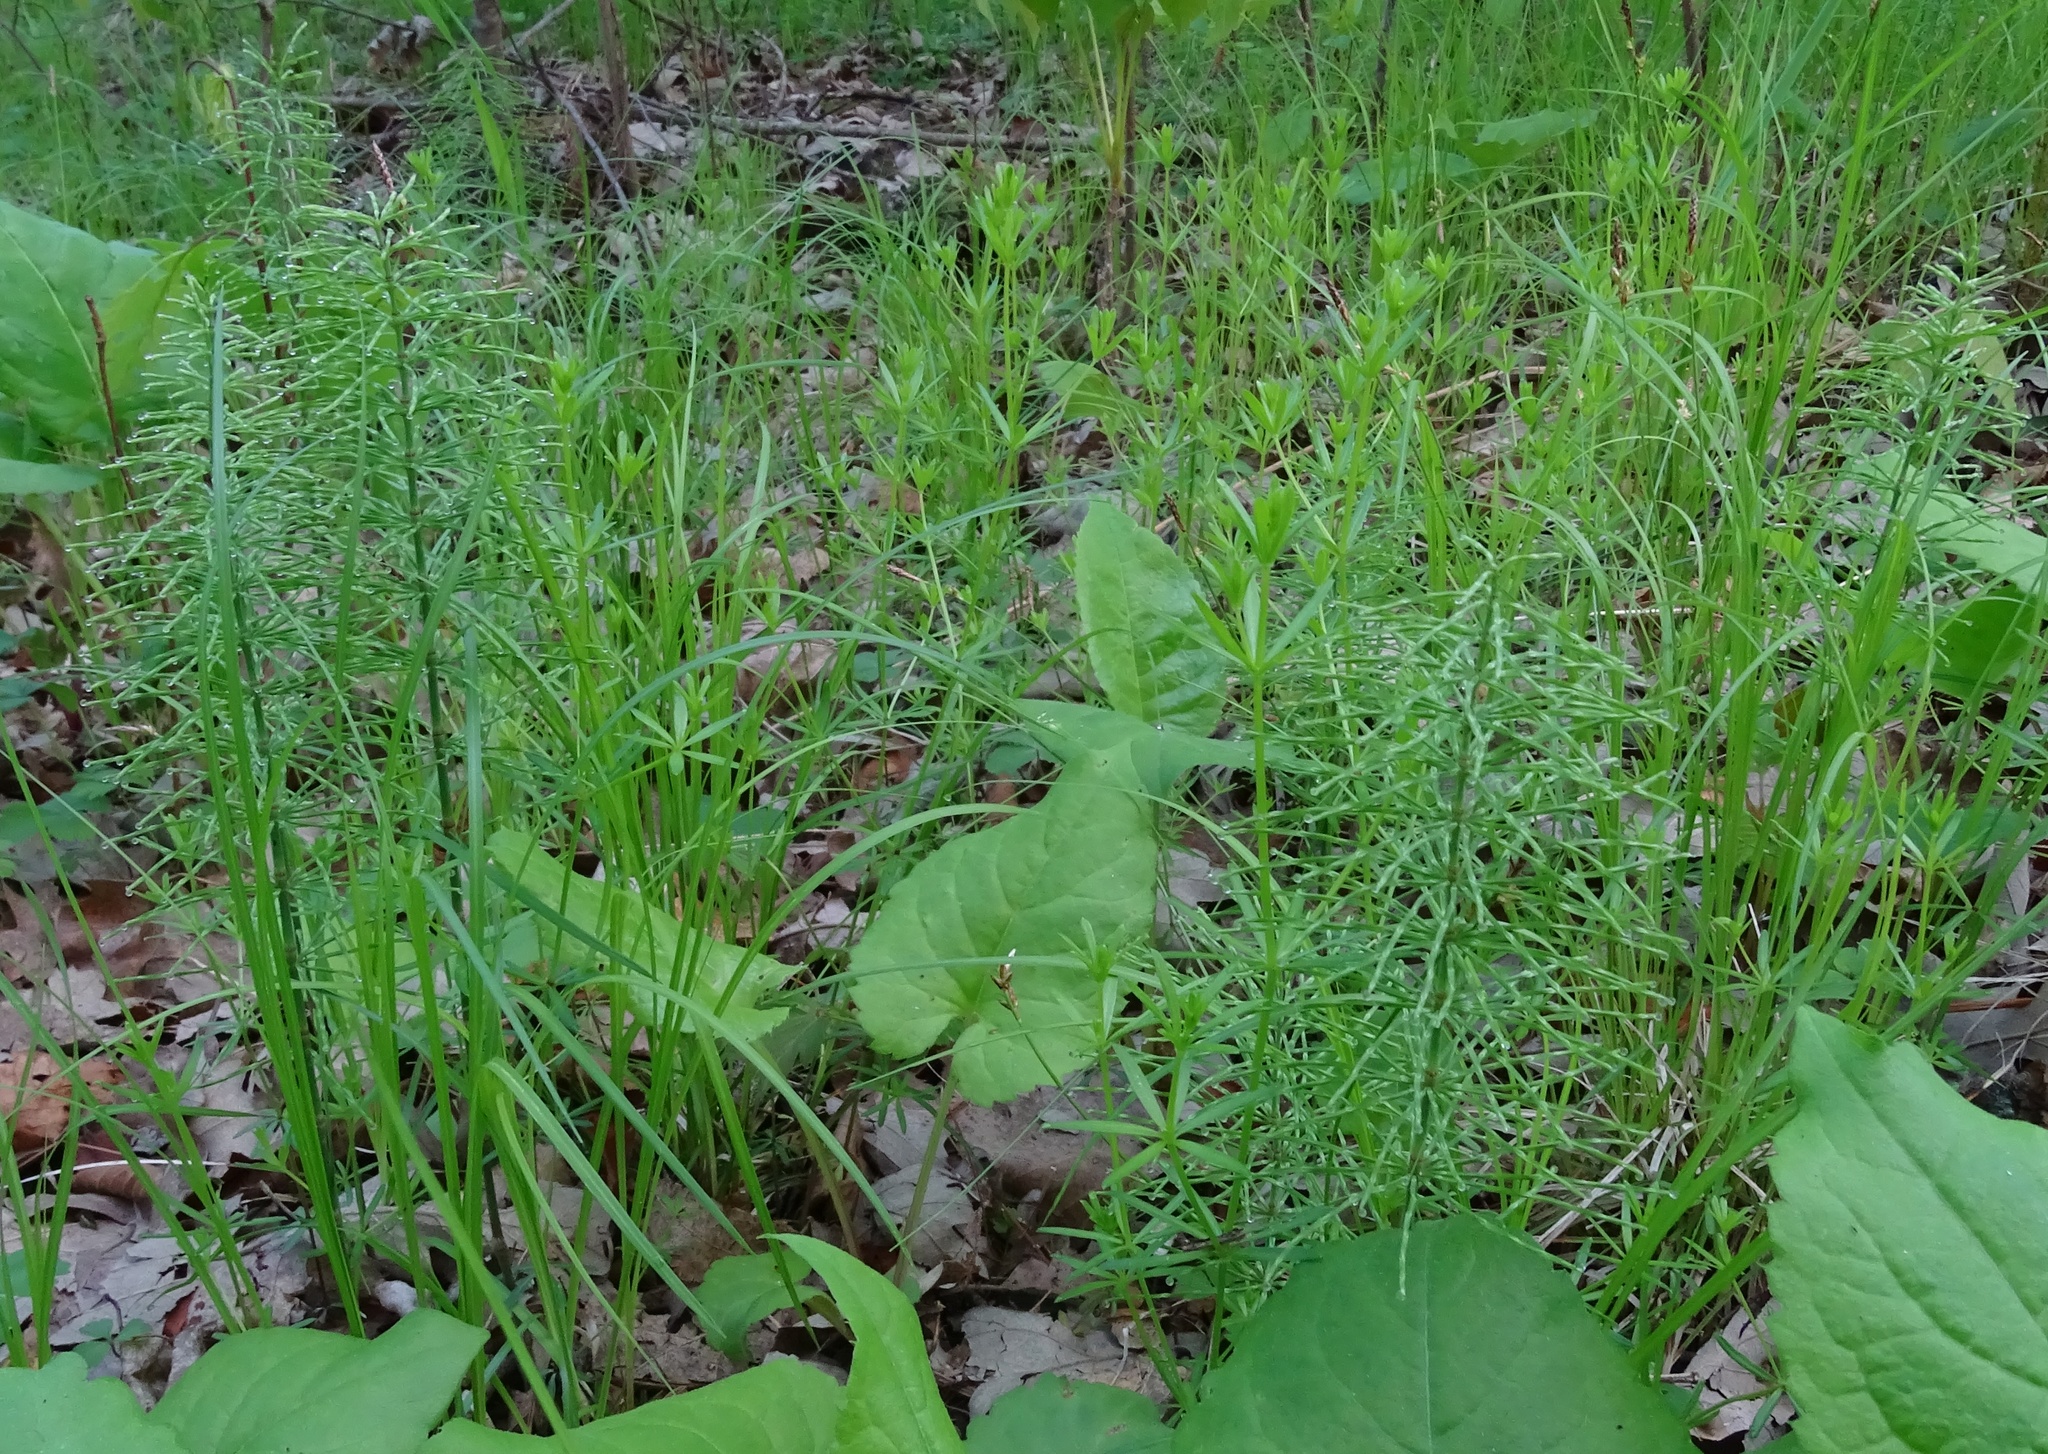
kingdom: Plantae
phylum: Tracheophyta
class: Polypodiopsida
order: Equisetales
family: Equisetaceae
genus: Equisetum
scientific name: Equisetum pratense
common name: Meadow horsetail
